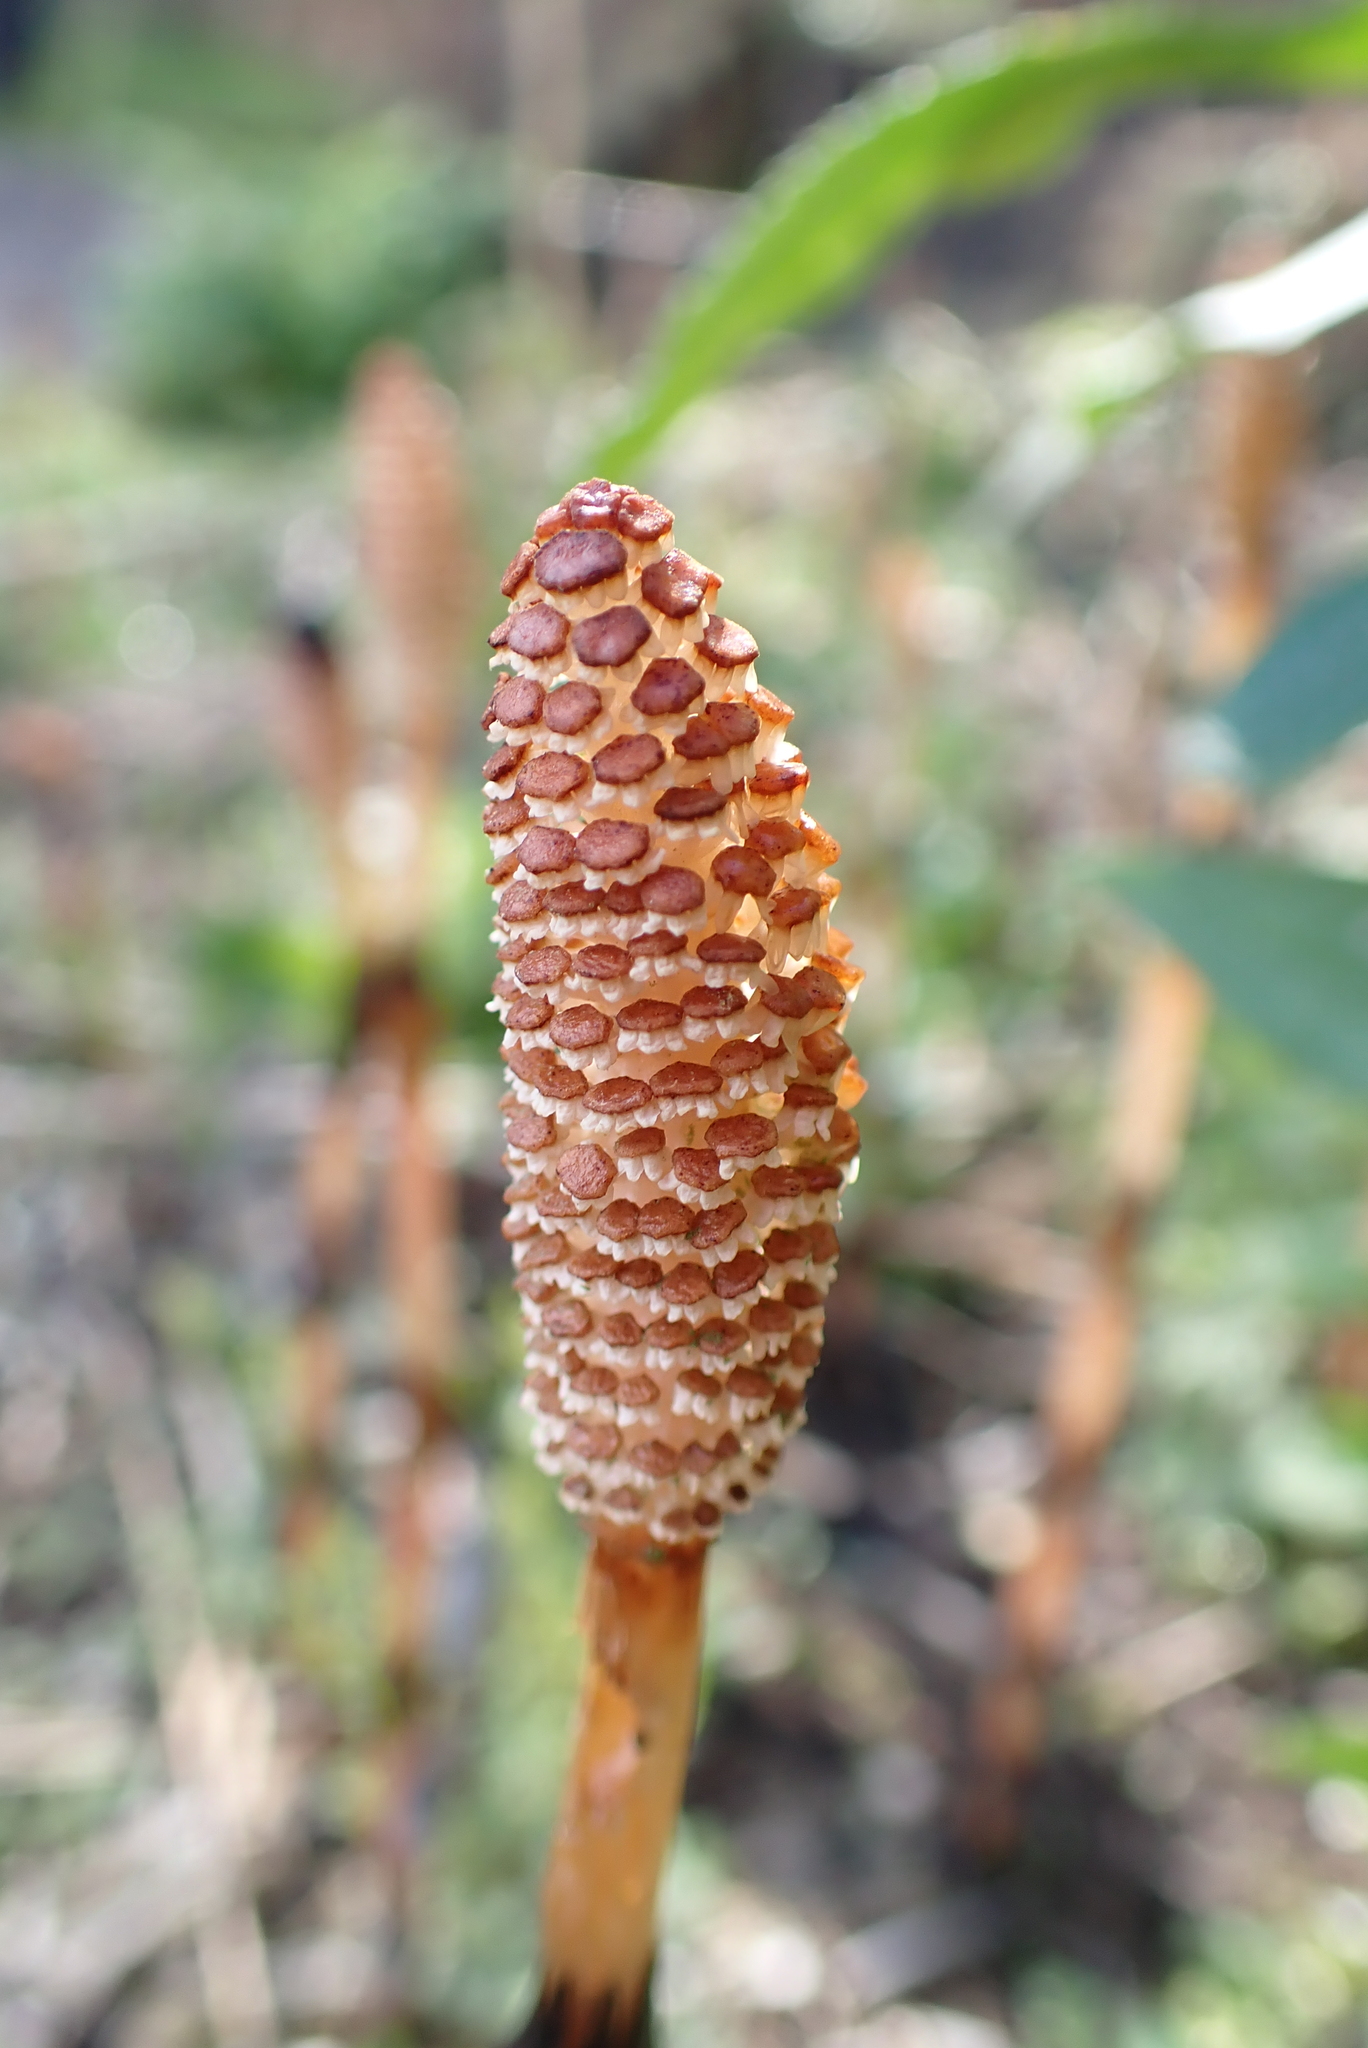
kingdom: Plantae
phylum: Tracheophyta
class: Polypodiopsida
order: Equisetales
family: Equisetaceae
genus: Equisetum
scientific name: Equisetum arvense
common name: Field horsetail
